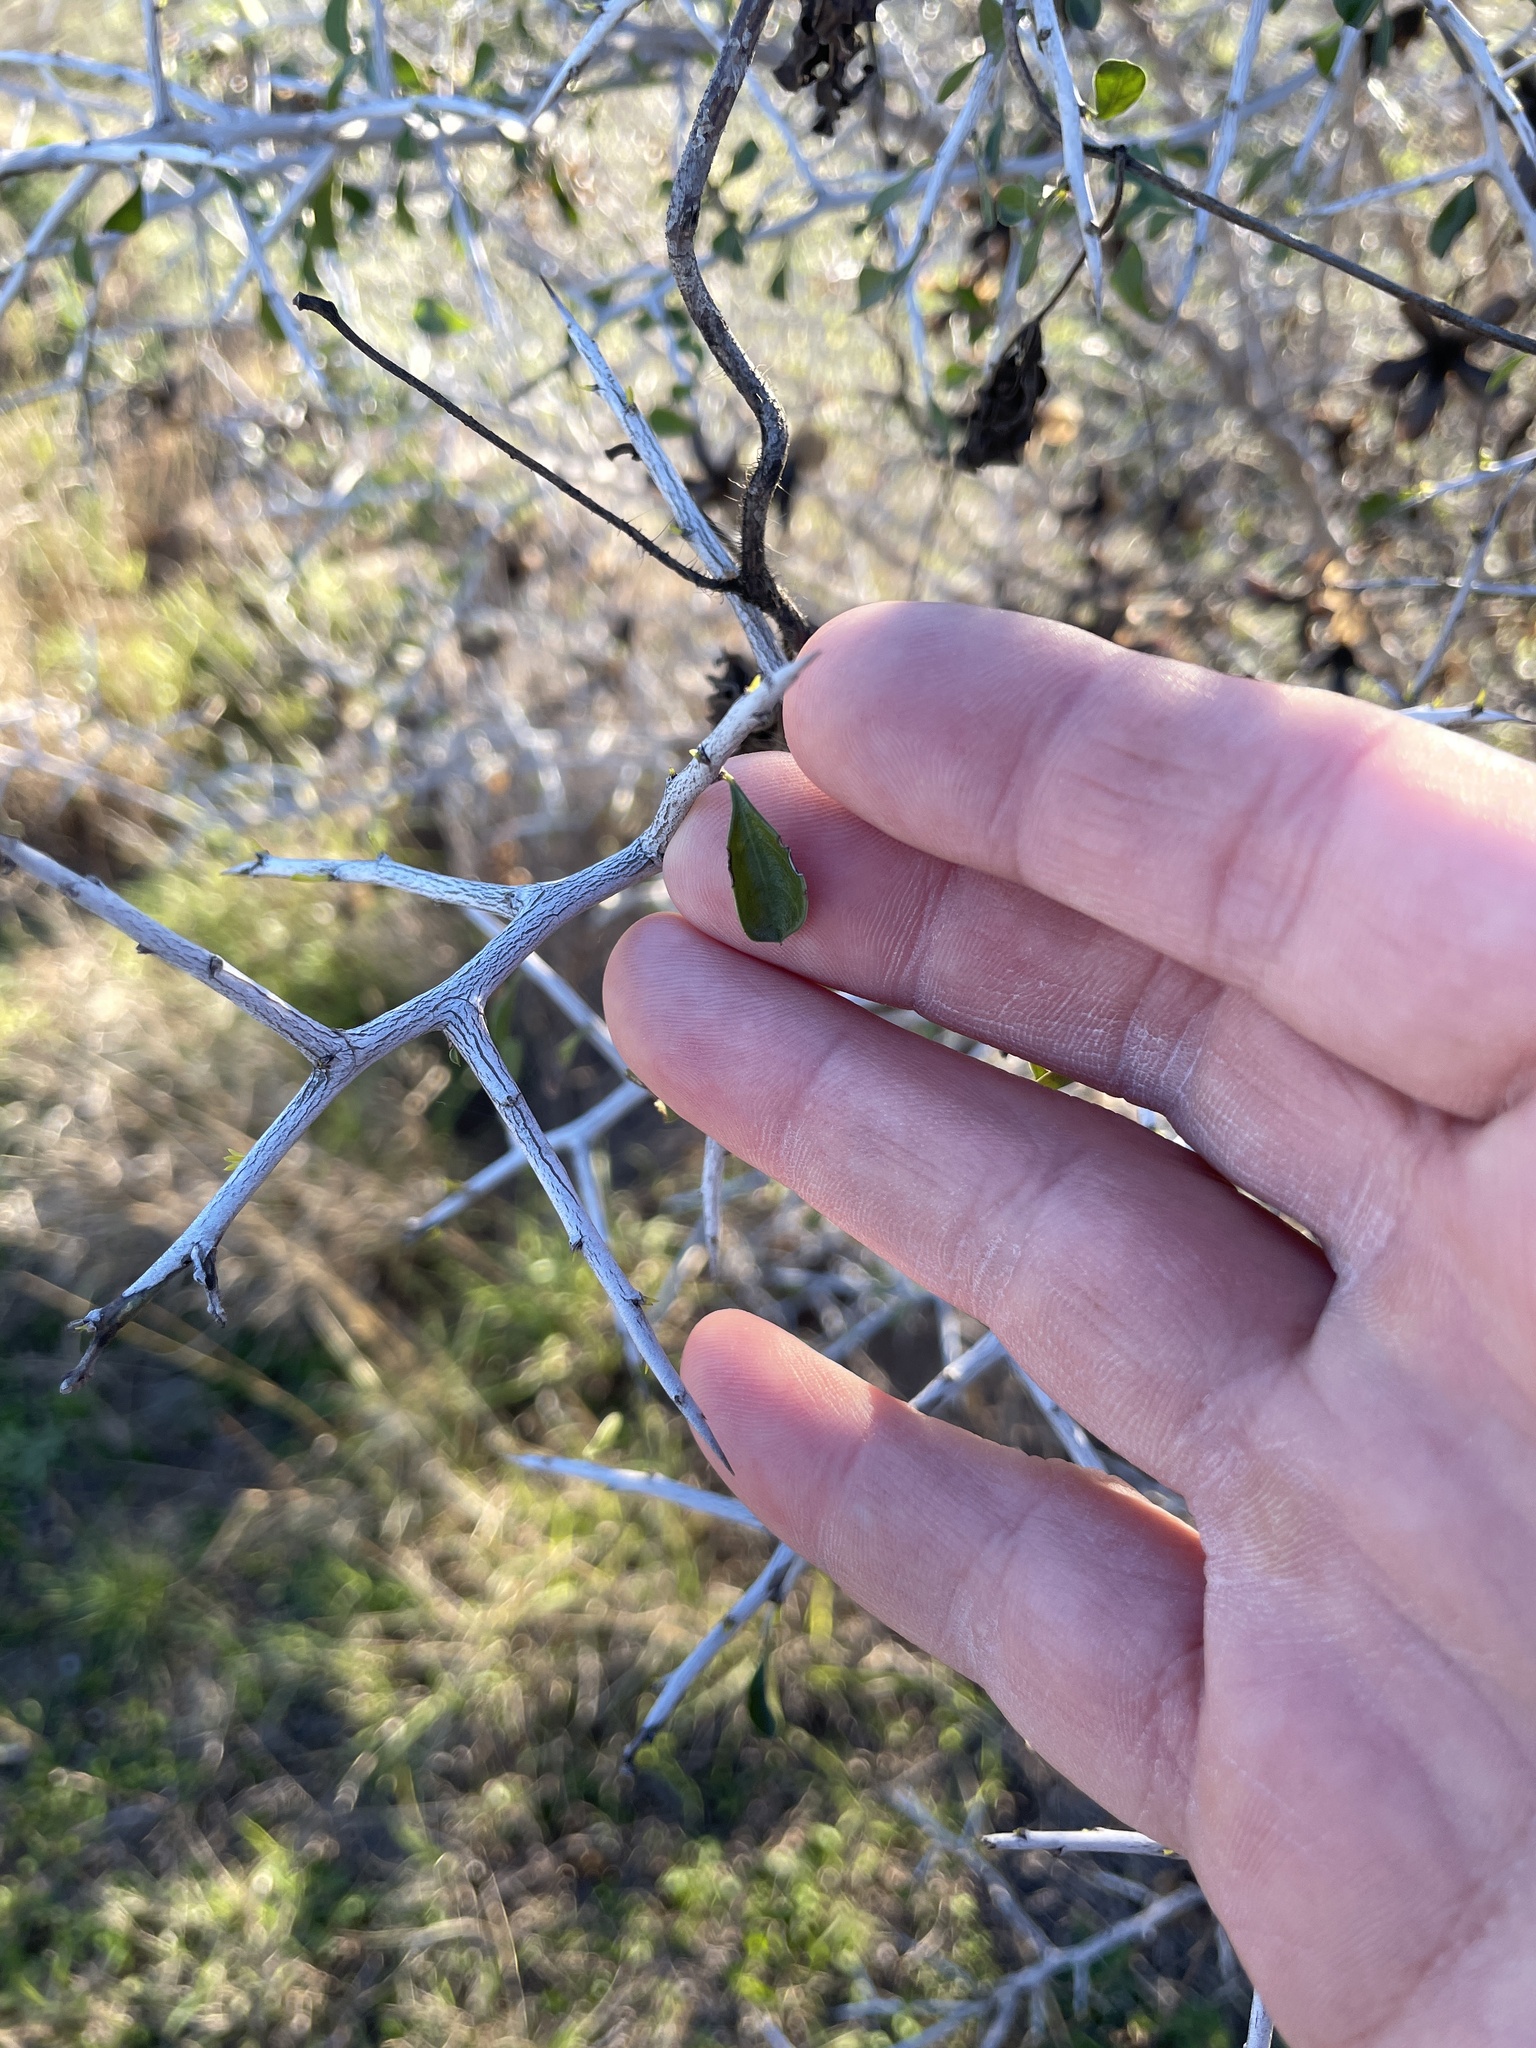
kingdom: Plantae
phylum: Tracheophyta
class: Magnoliopsida
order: Rosales
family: Rhamnaceae
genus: Condalia
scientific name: Condalia hookeri
